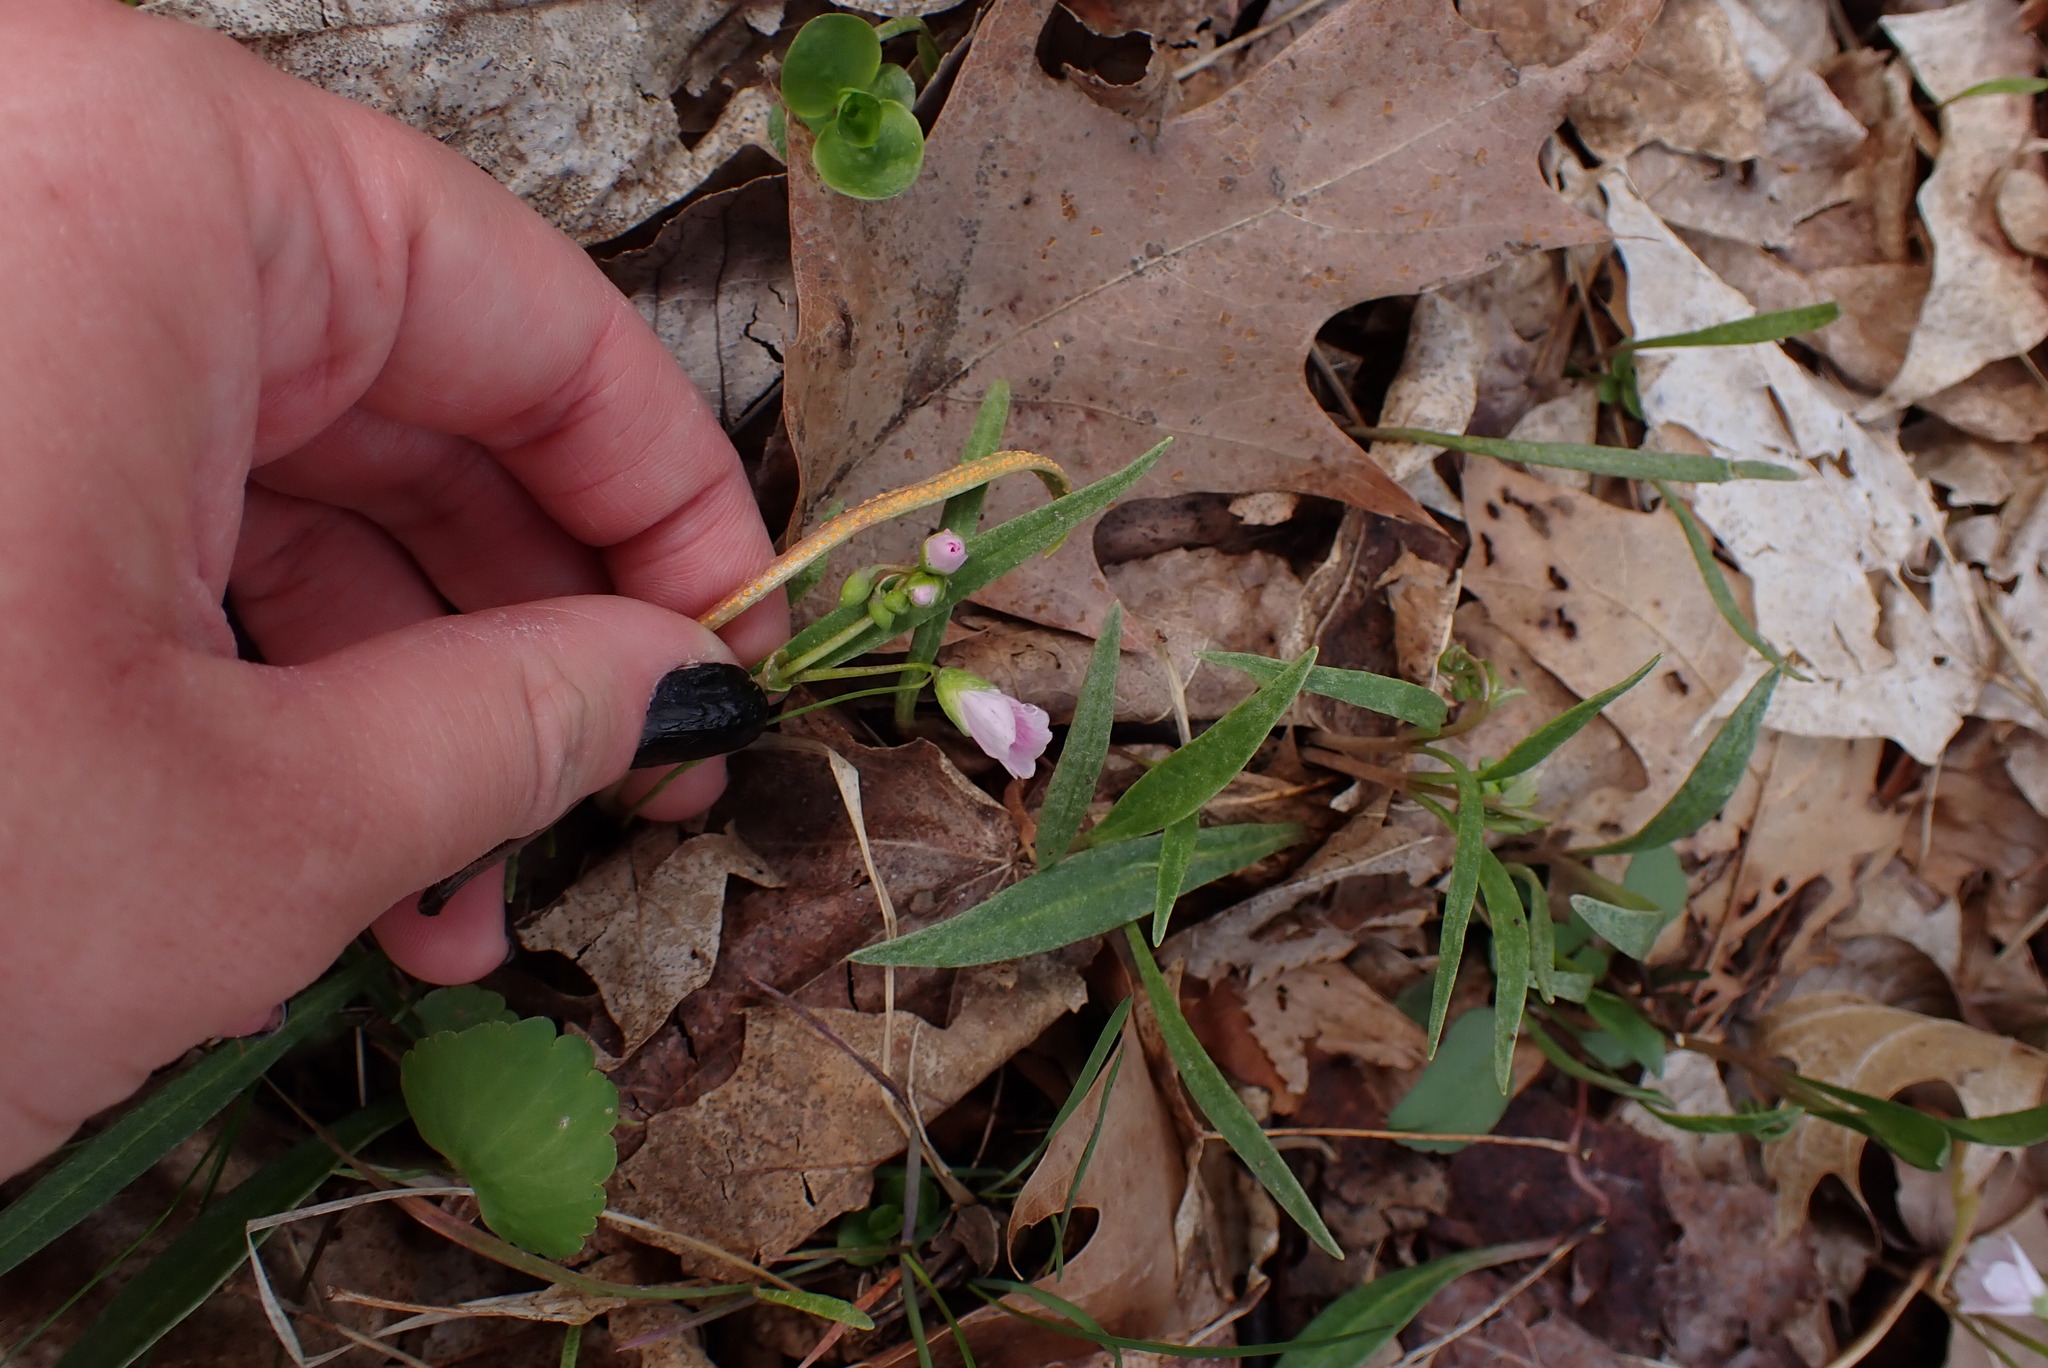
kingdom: Fungi
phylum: Basidiomycota
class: Pucciniomycetes
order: Pucciniales
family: Pucciniaceae
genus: Puccinia
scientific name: Puccinia mariae-wilsoniae
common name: Spring beauty rust
